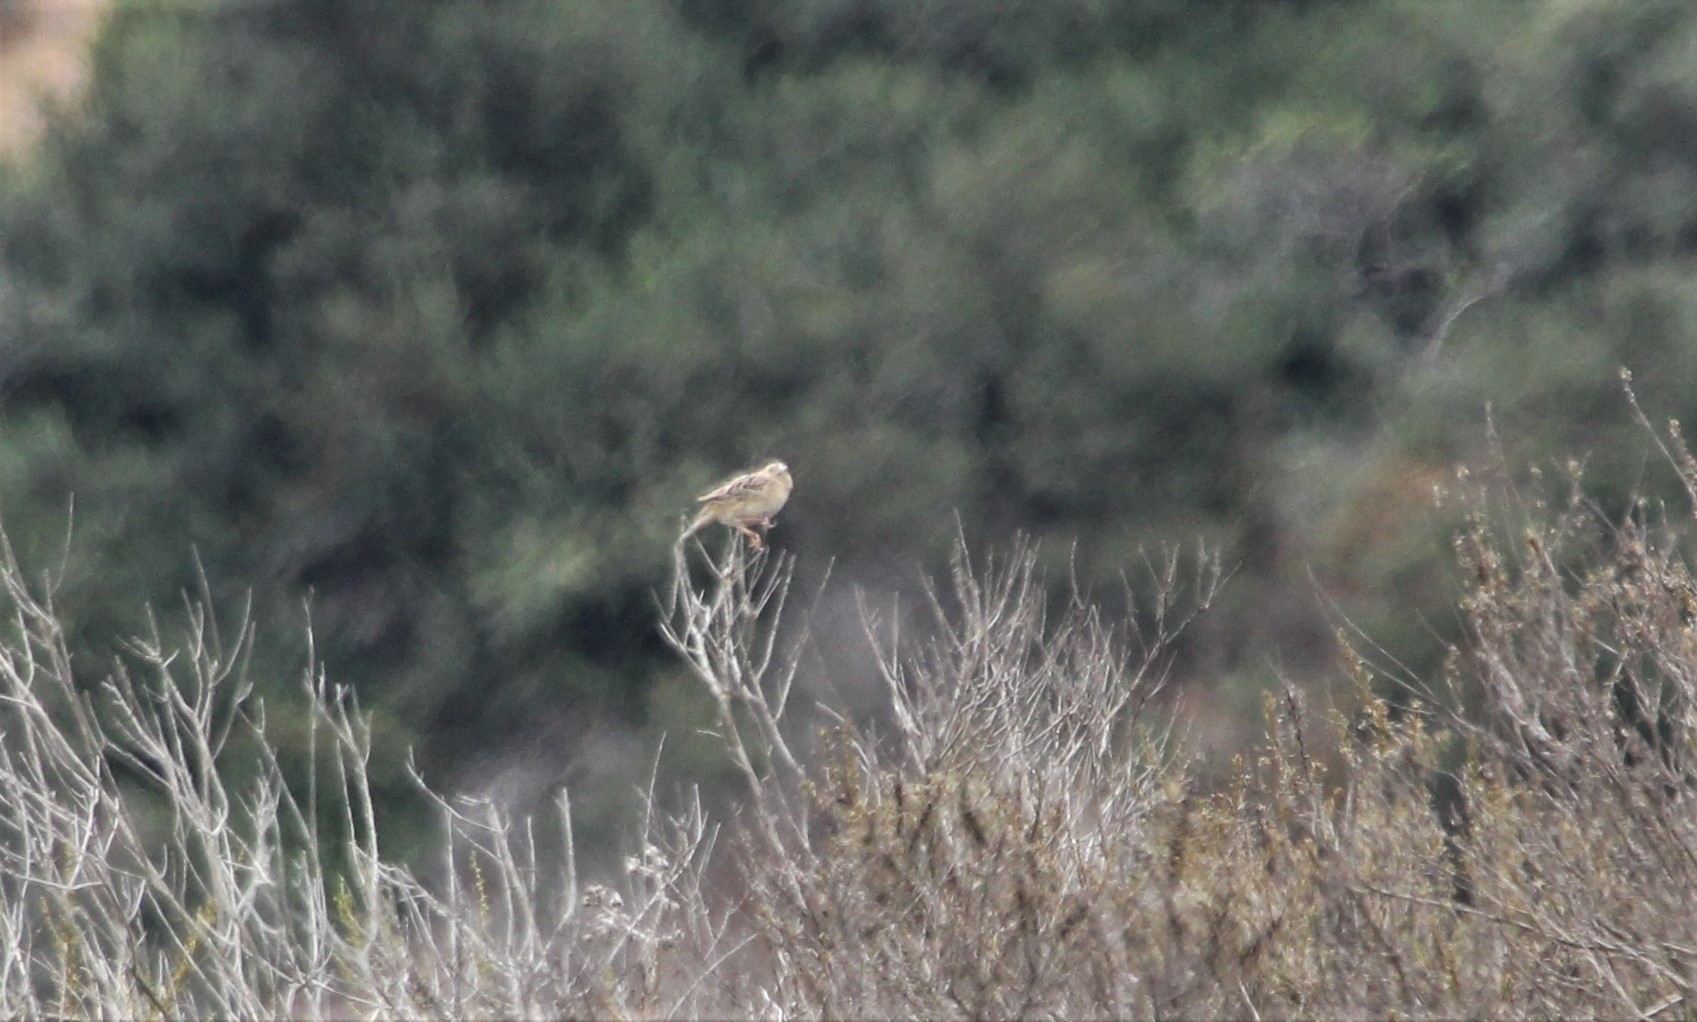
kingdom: Animalia
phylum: Chordata
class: Aves
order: Passeriformes
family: Passerellidae
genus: Ammodramus
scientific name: Ammodramus savannarum
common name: Grasshopper sparrow
